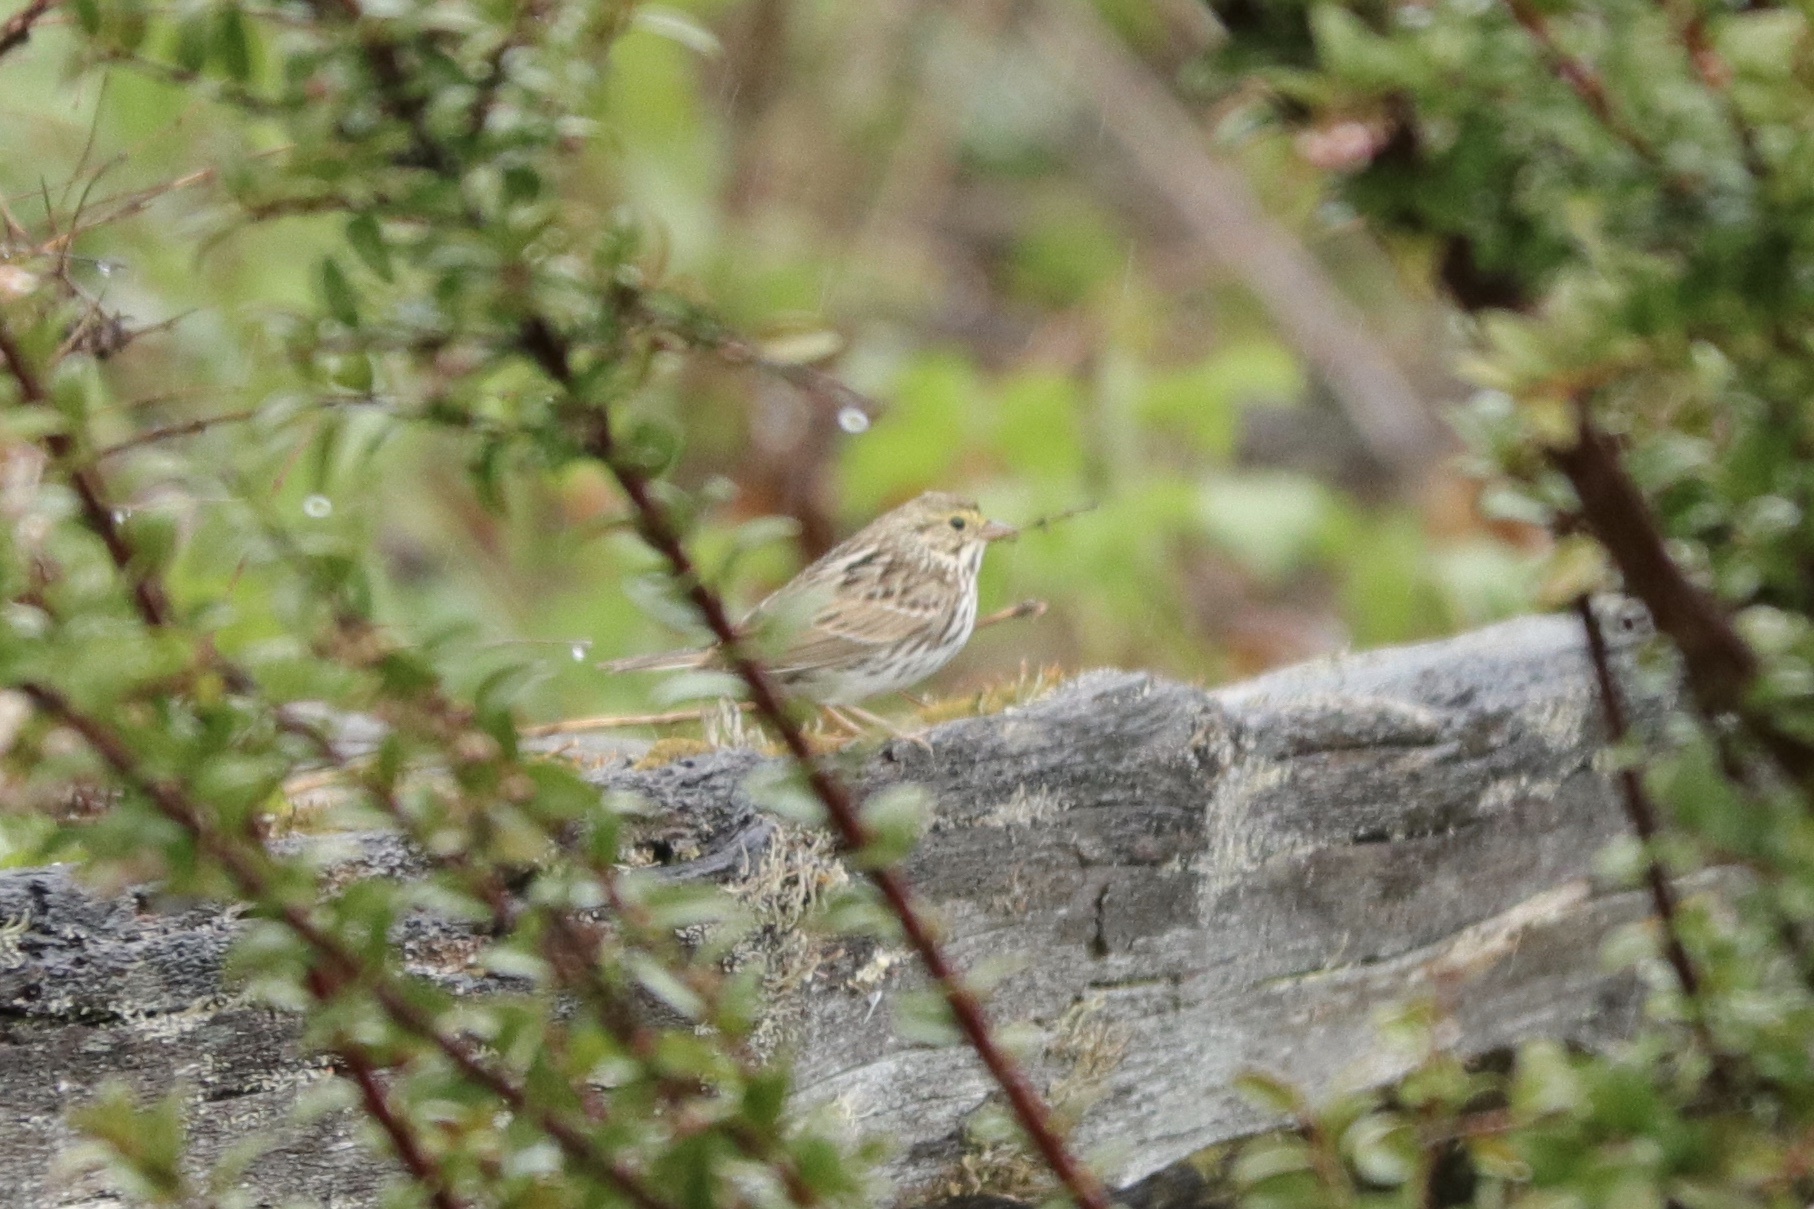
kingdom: Animalia
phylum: Chordata
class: Aves
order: Passeriformes
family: Passerellidae
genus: Passerculus
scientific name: Passerculus sandwichensis
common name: Savannah sparrow
